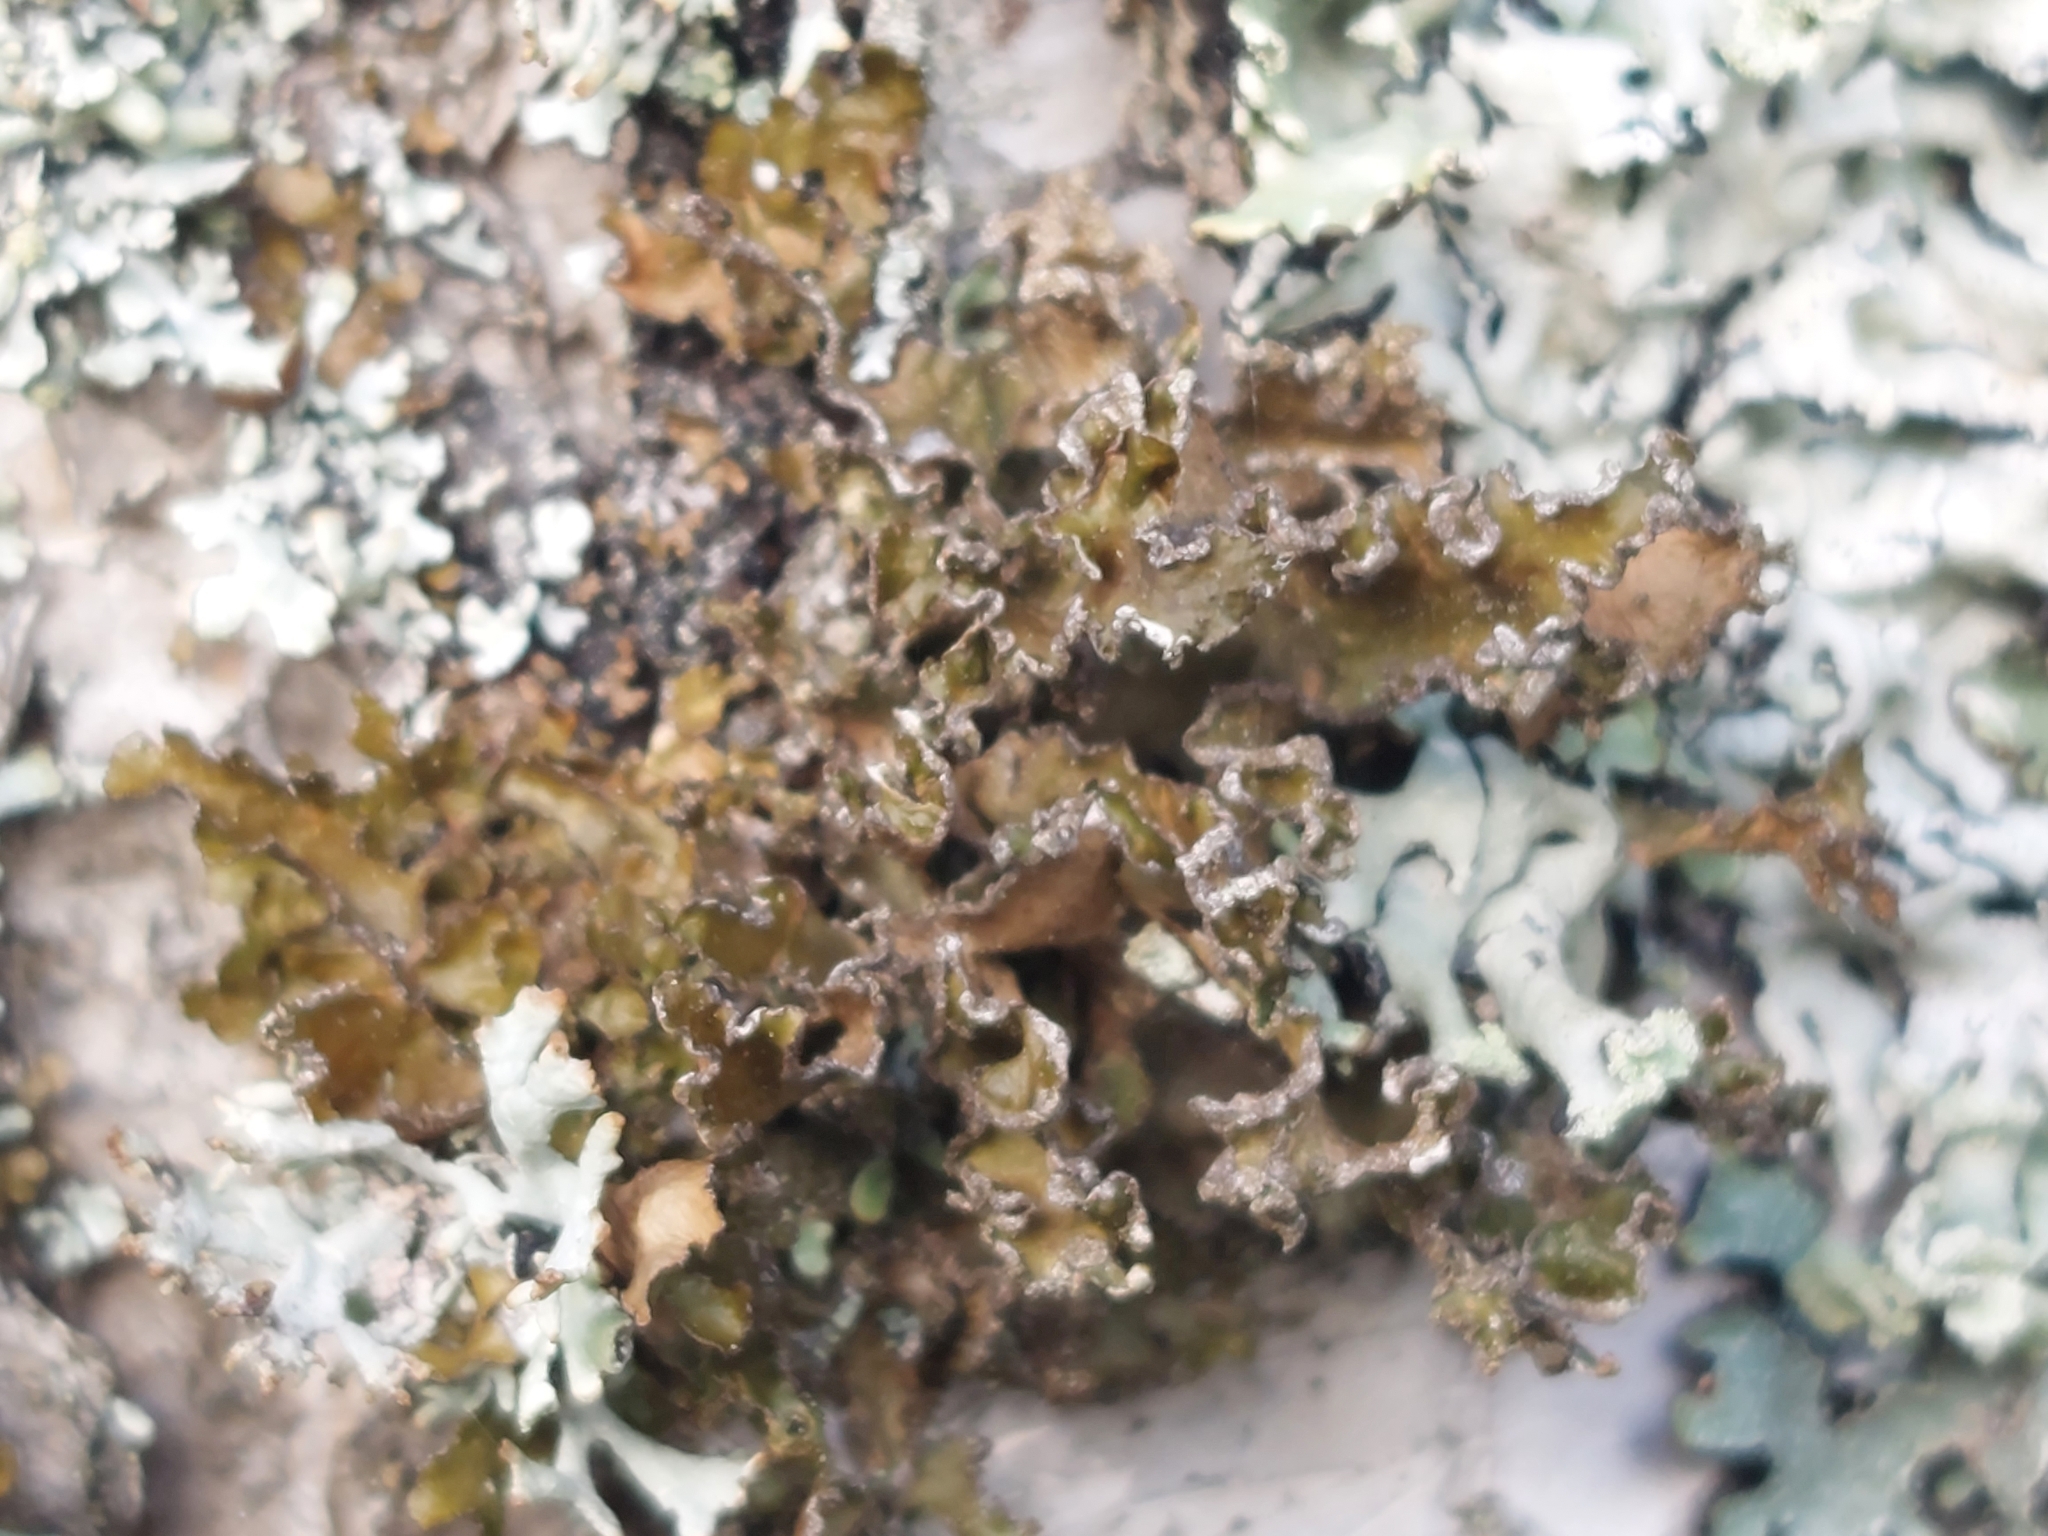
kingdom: Fungi
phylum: Ascomycota
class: Lecanoromycetes
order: Lecanorales
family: Parmeliaceae
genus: Nephromopsis
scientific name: Nephromopsis chlorophylla
